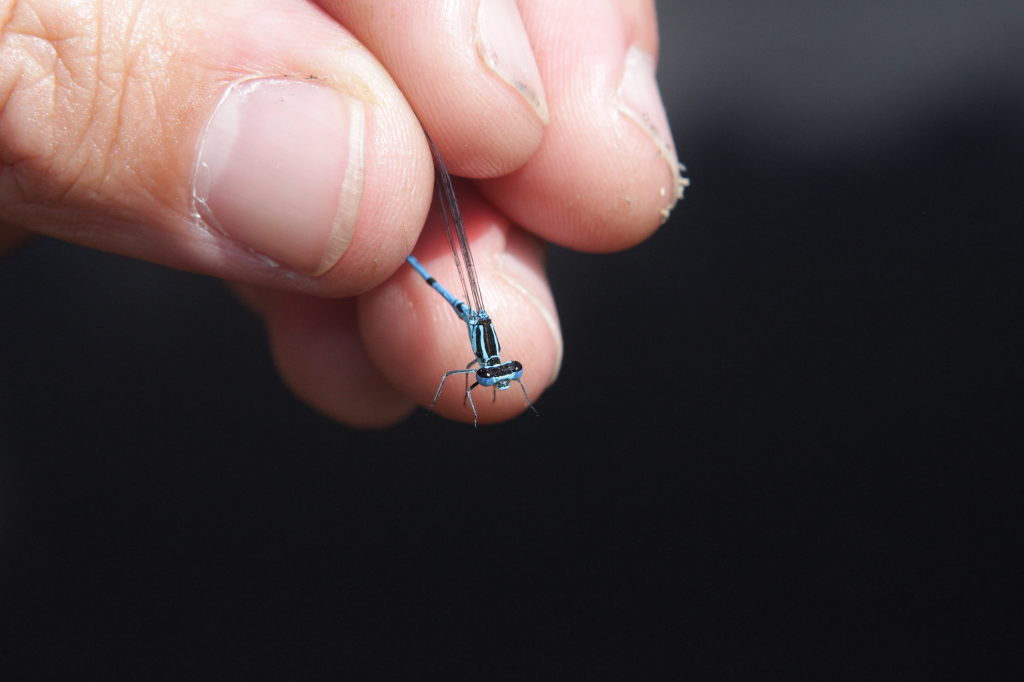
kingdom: Animalia
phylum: Arthropoda
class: Insecta
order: Odonata
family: Coenagrionidae
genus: Coenagrion
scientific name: Coenagrion puella
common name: Azure damselfly
